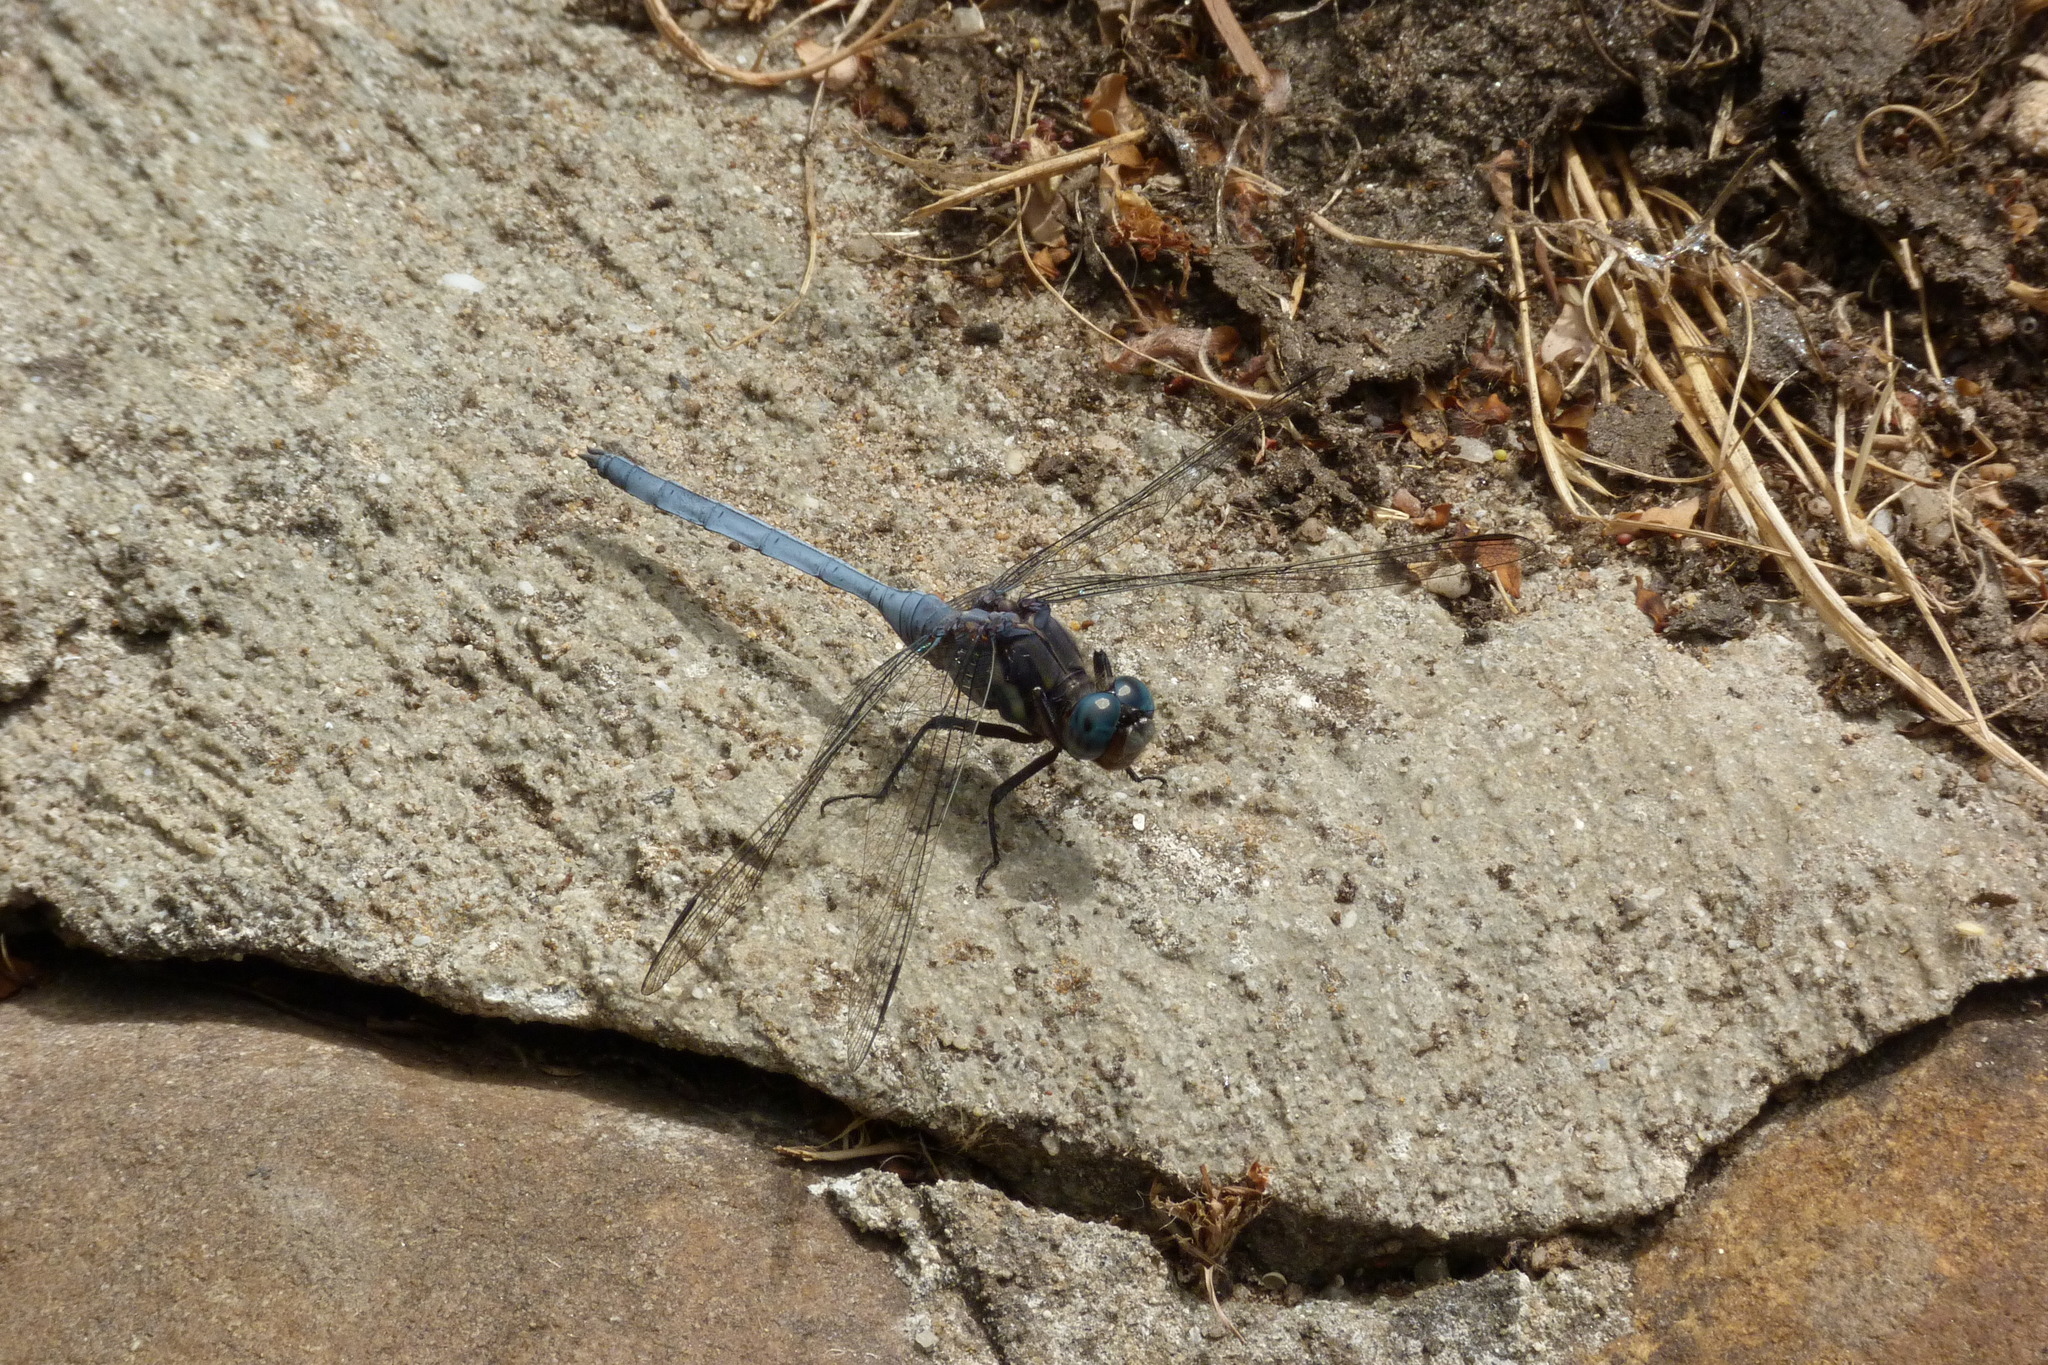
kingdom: Animalia
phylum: Arthropoda
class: Insecta
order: Odonata
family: Libellulidae
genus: Orthetrum
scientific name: Orthetrum julia
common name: Julia skimmer
